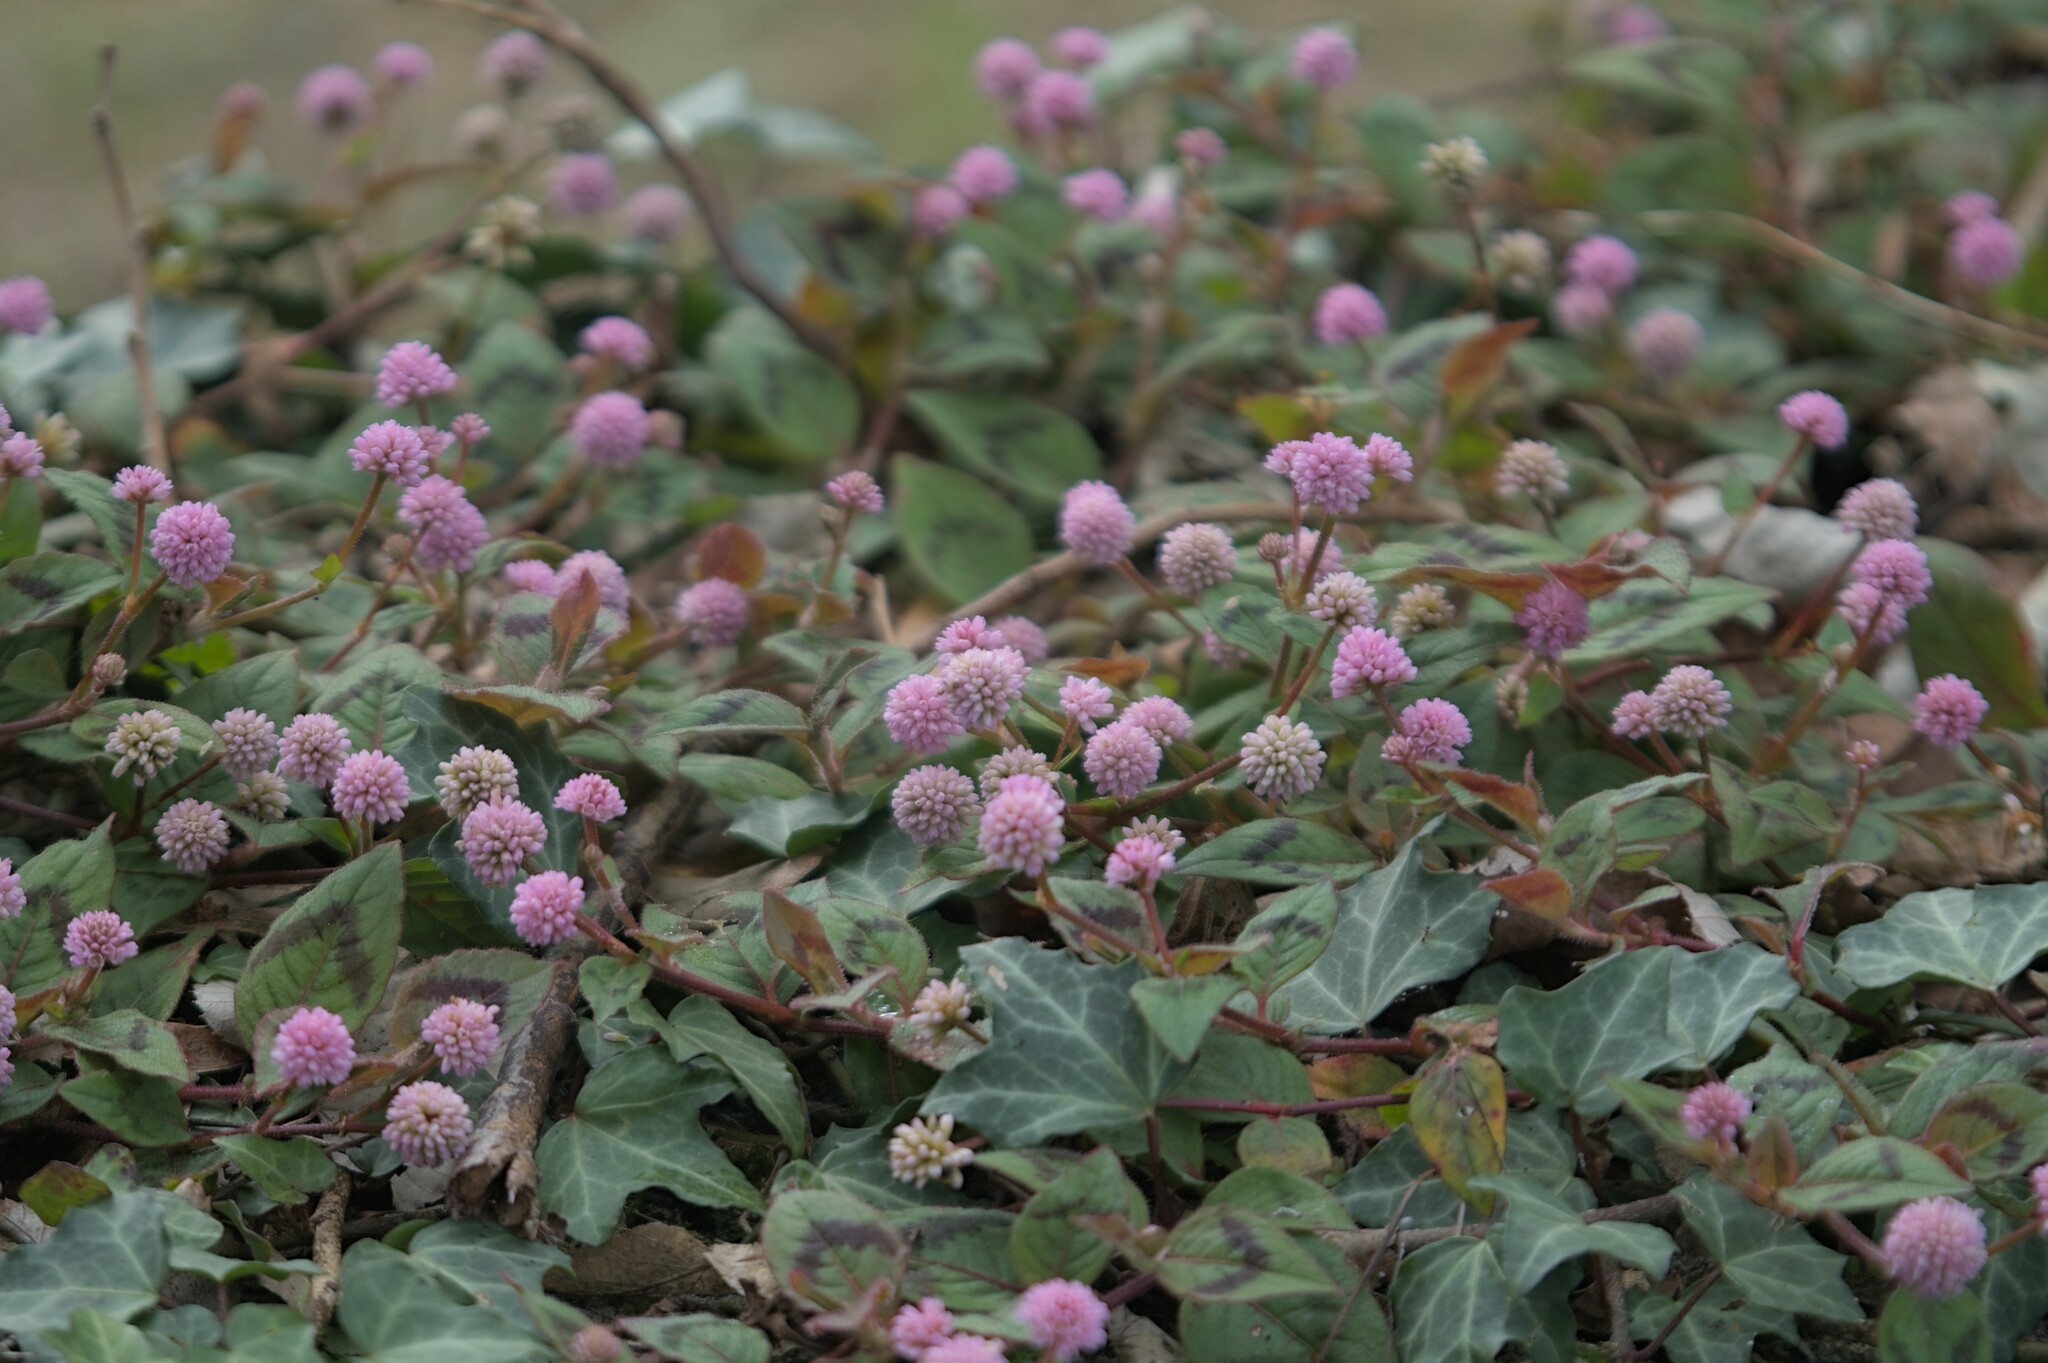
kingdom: Plantae
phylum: Tracheophyta
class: Magnoliopsida
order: Caryophyllales
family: Polygonaceae
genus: Persicaria
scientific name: Persicaria capitata
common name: Pinkhead smartweed
